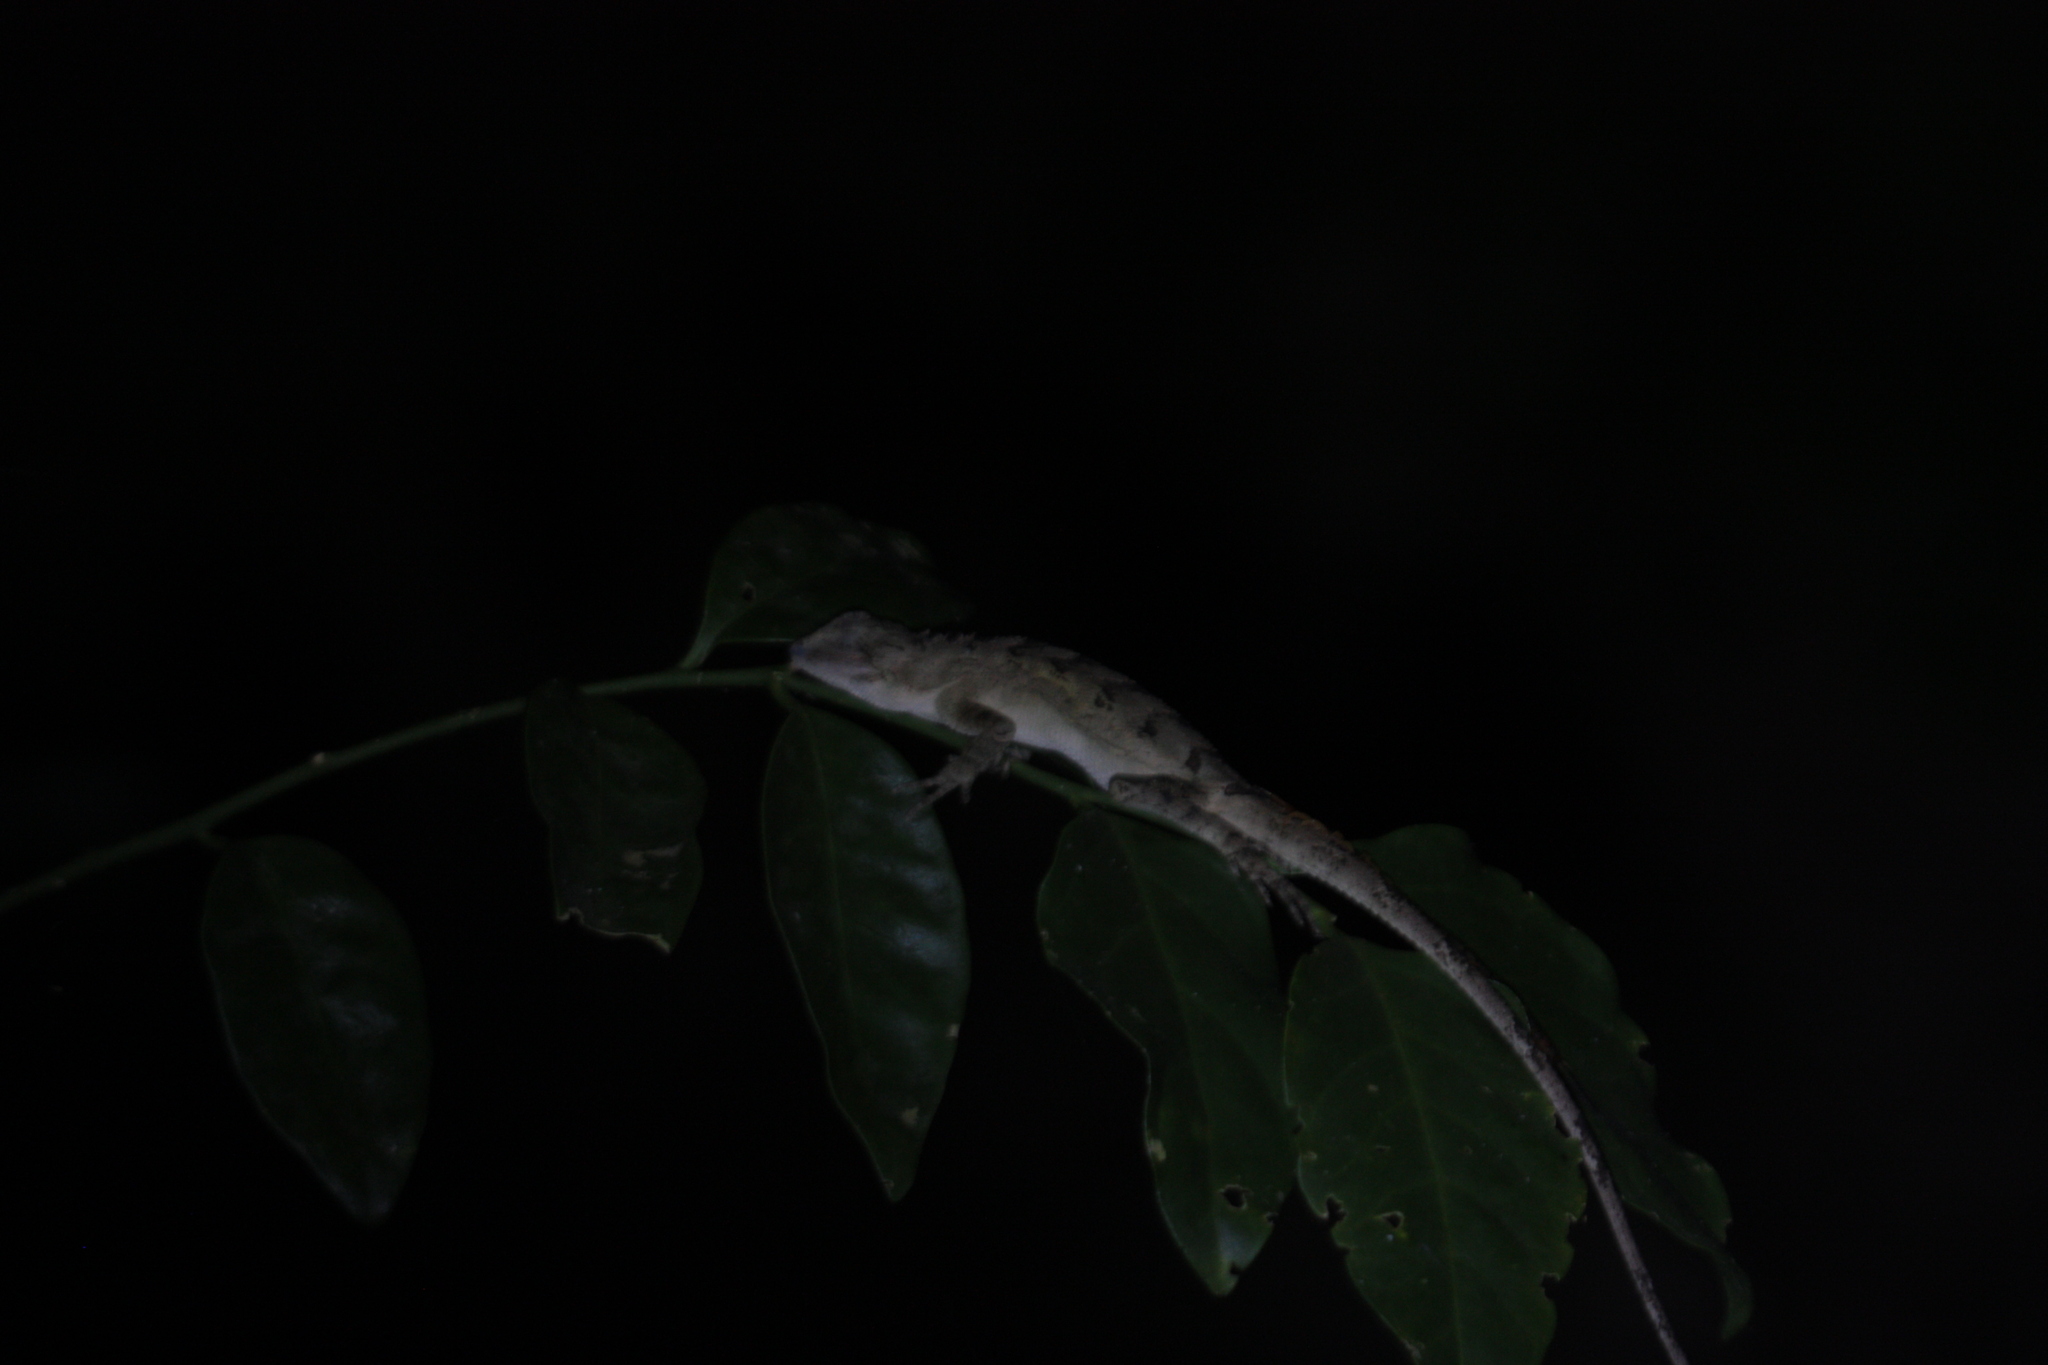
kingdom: Animalia
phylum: Chordata
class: Squamata
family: Agamidae
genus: Diploderma
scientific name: Diploderma swinhonis
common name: Taiwan japalure
